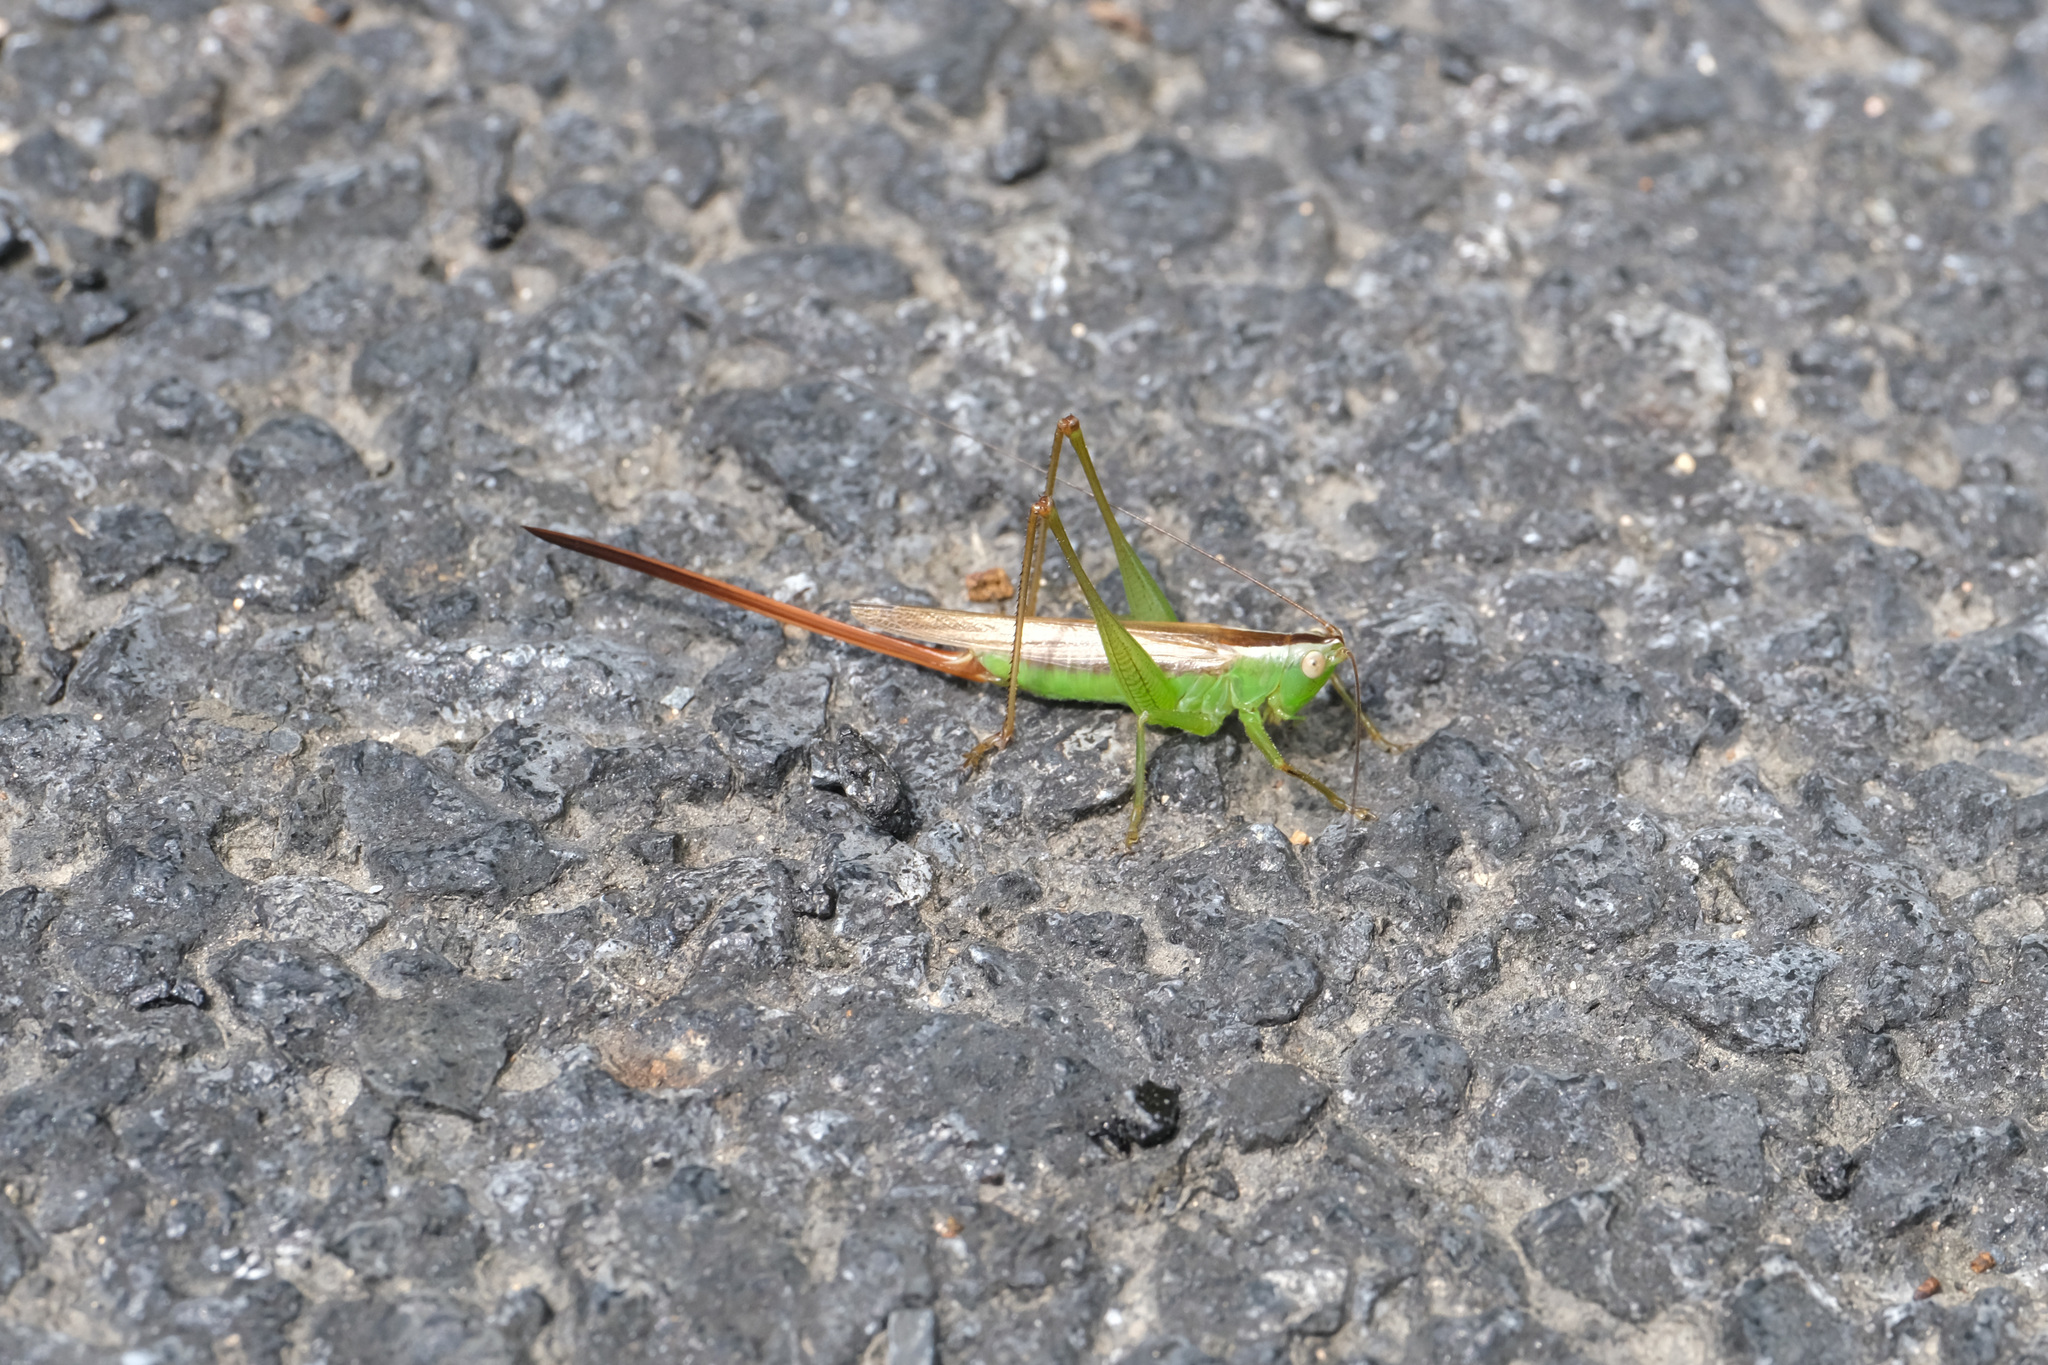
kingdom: Animalia
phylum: Arthropoda
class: Insecta
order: Orthoptera
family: Tettigoniidae
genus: Conocephalus
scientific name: Conocephalus exemptus
